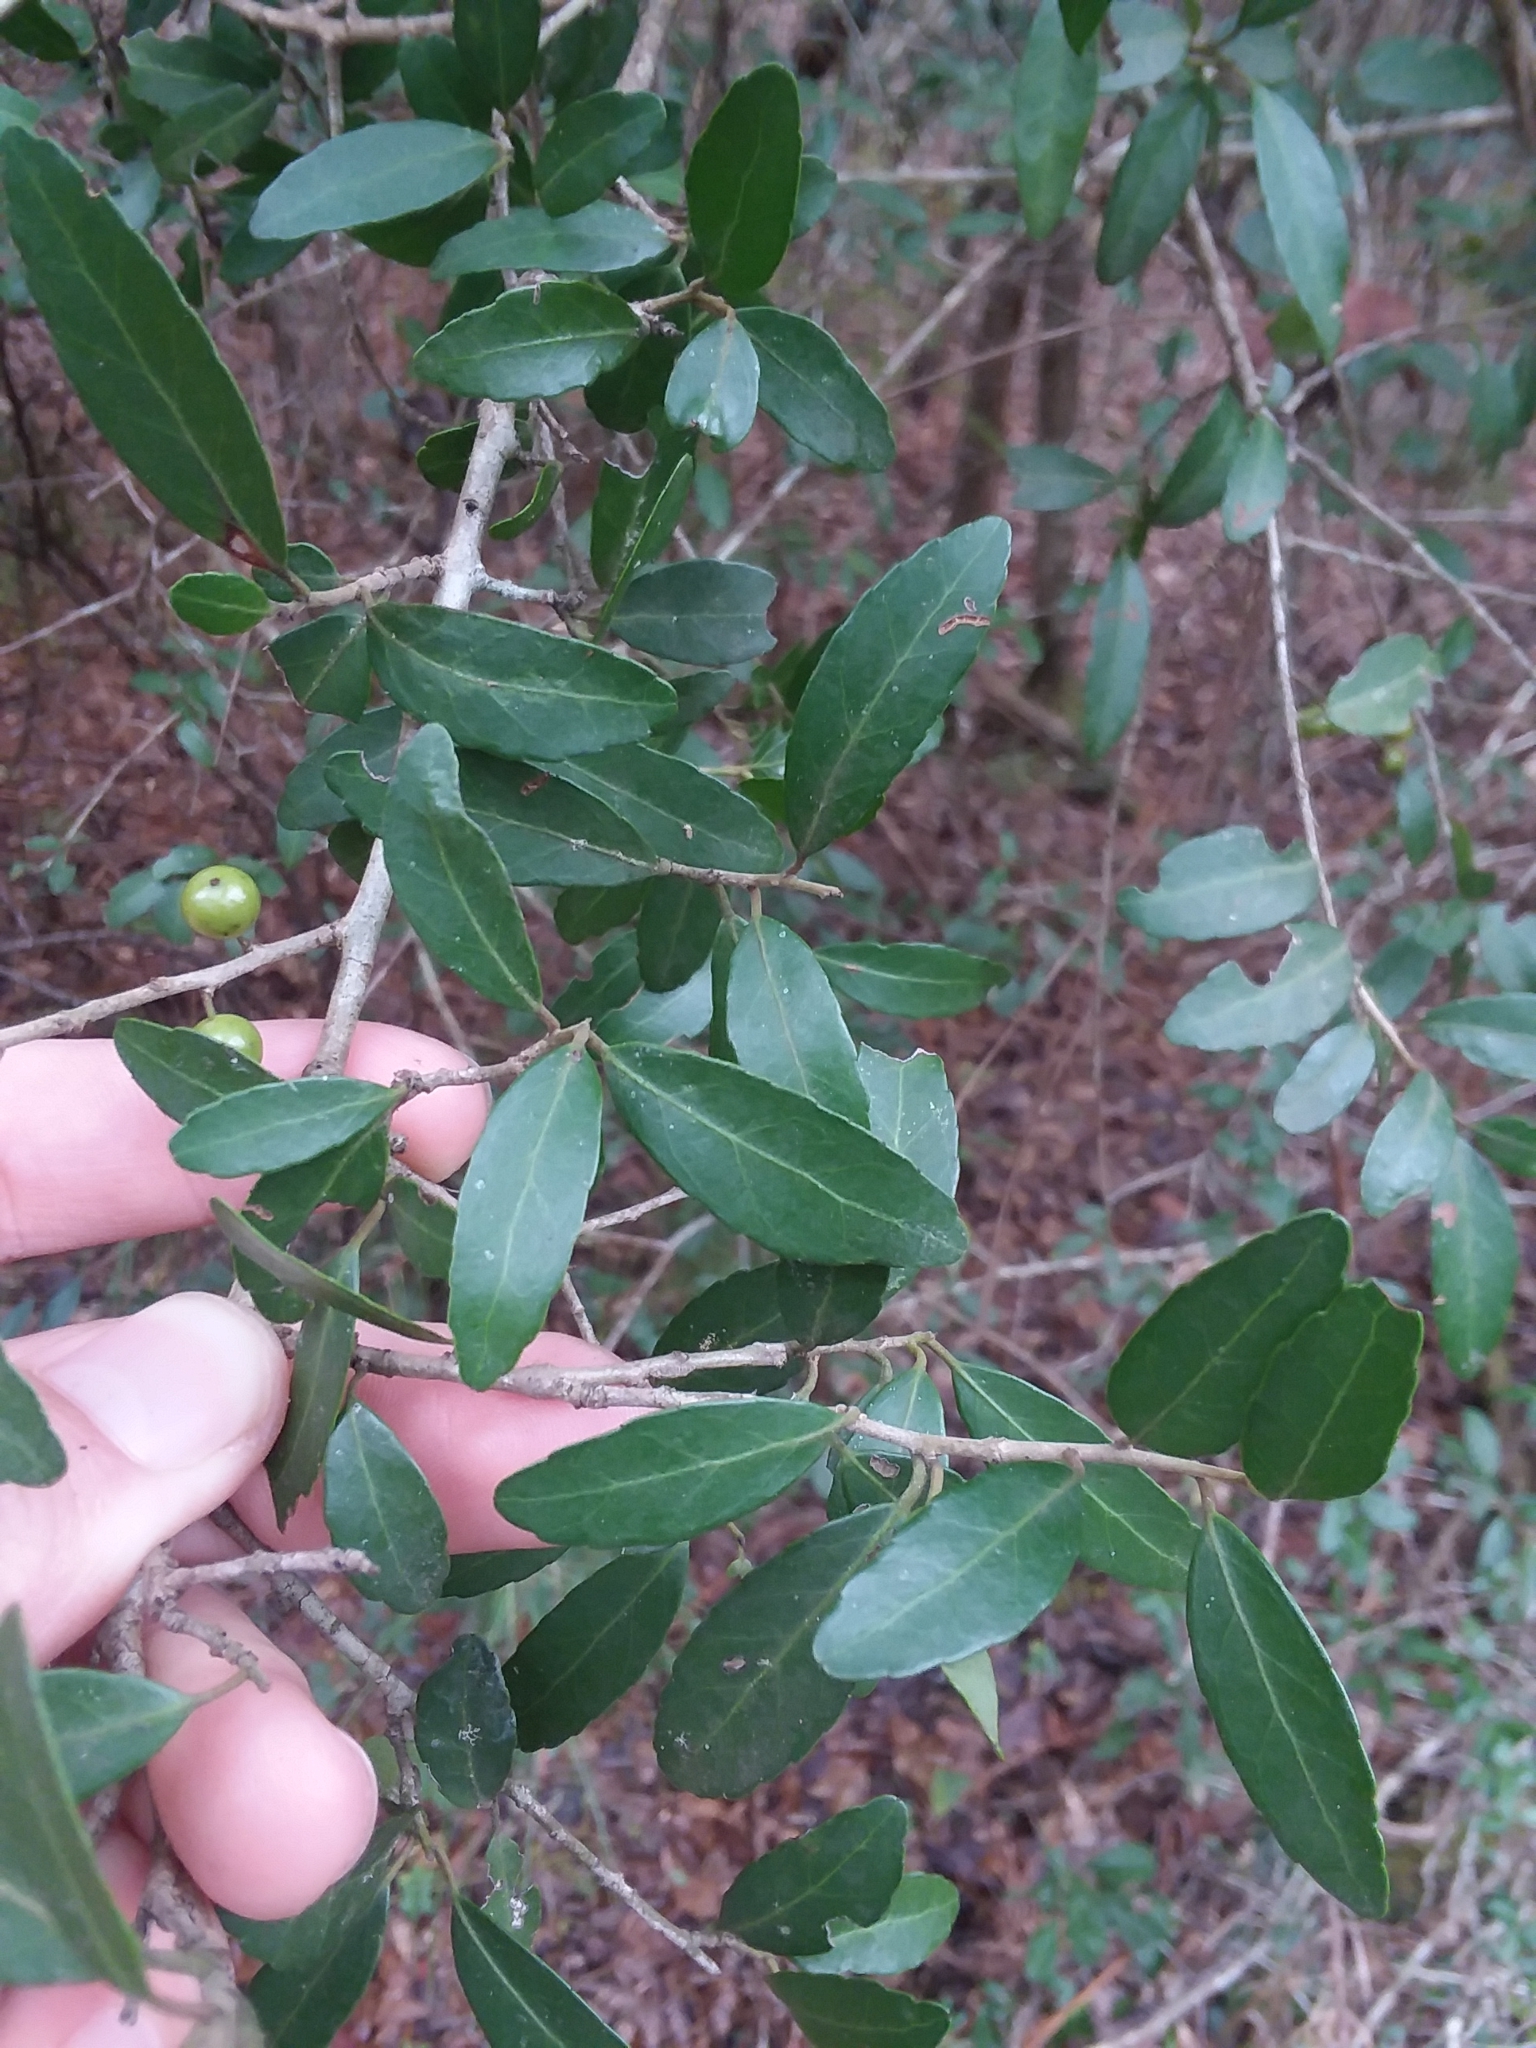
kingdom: Plantae
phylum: Tracheophyta
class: Magnoliopsida
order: Aquifoliales
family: Aquifoliaceae
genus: Ilex
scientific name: Ilex vomitoria
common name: Yaupon holly
